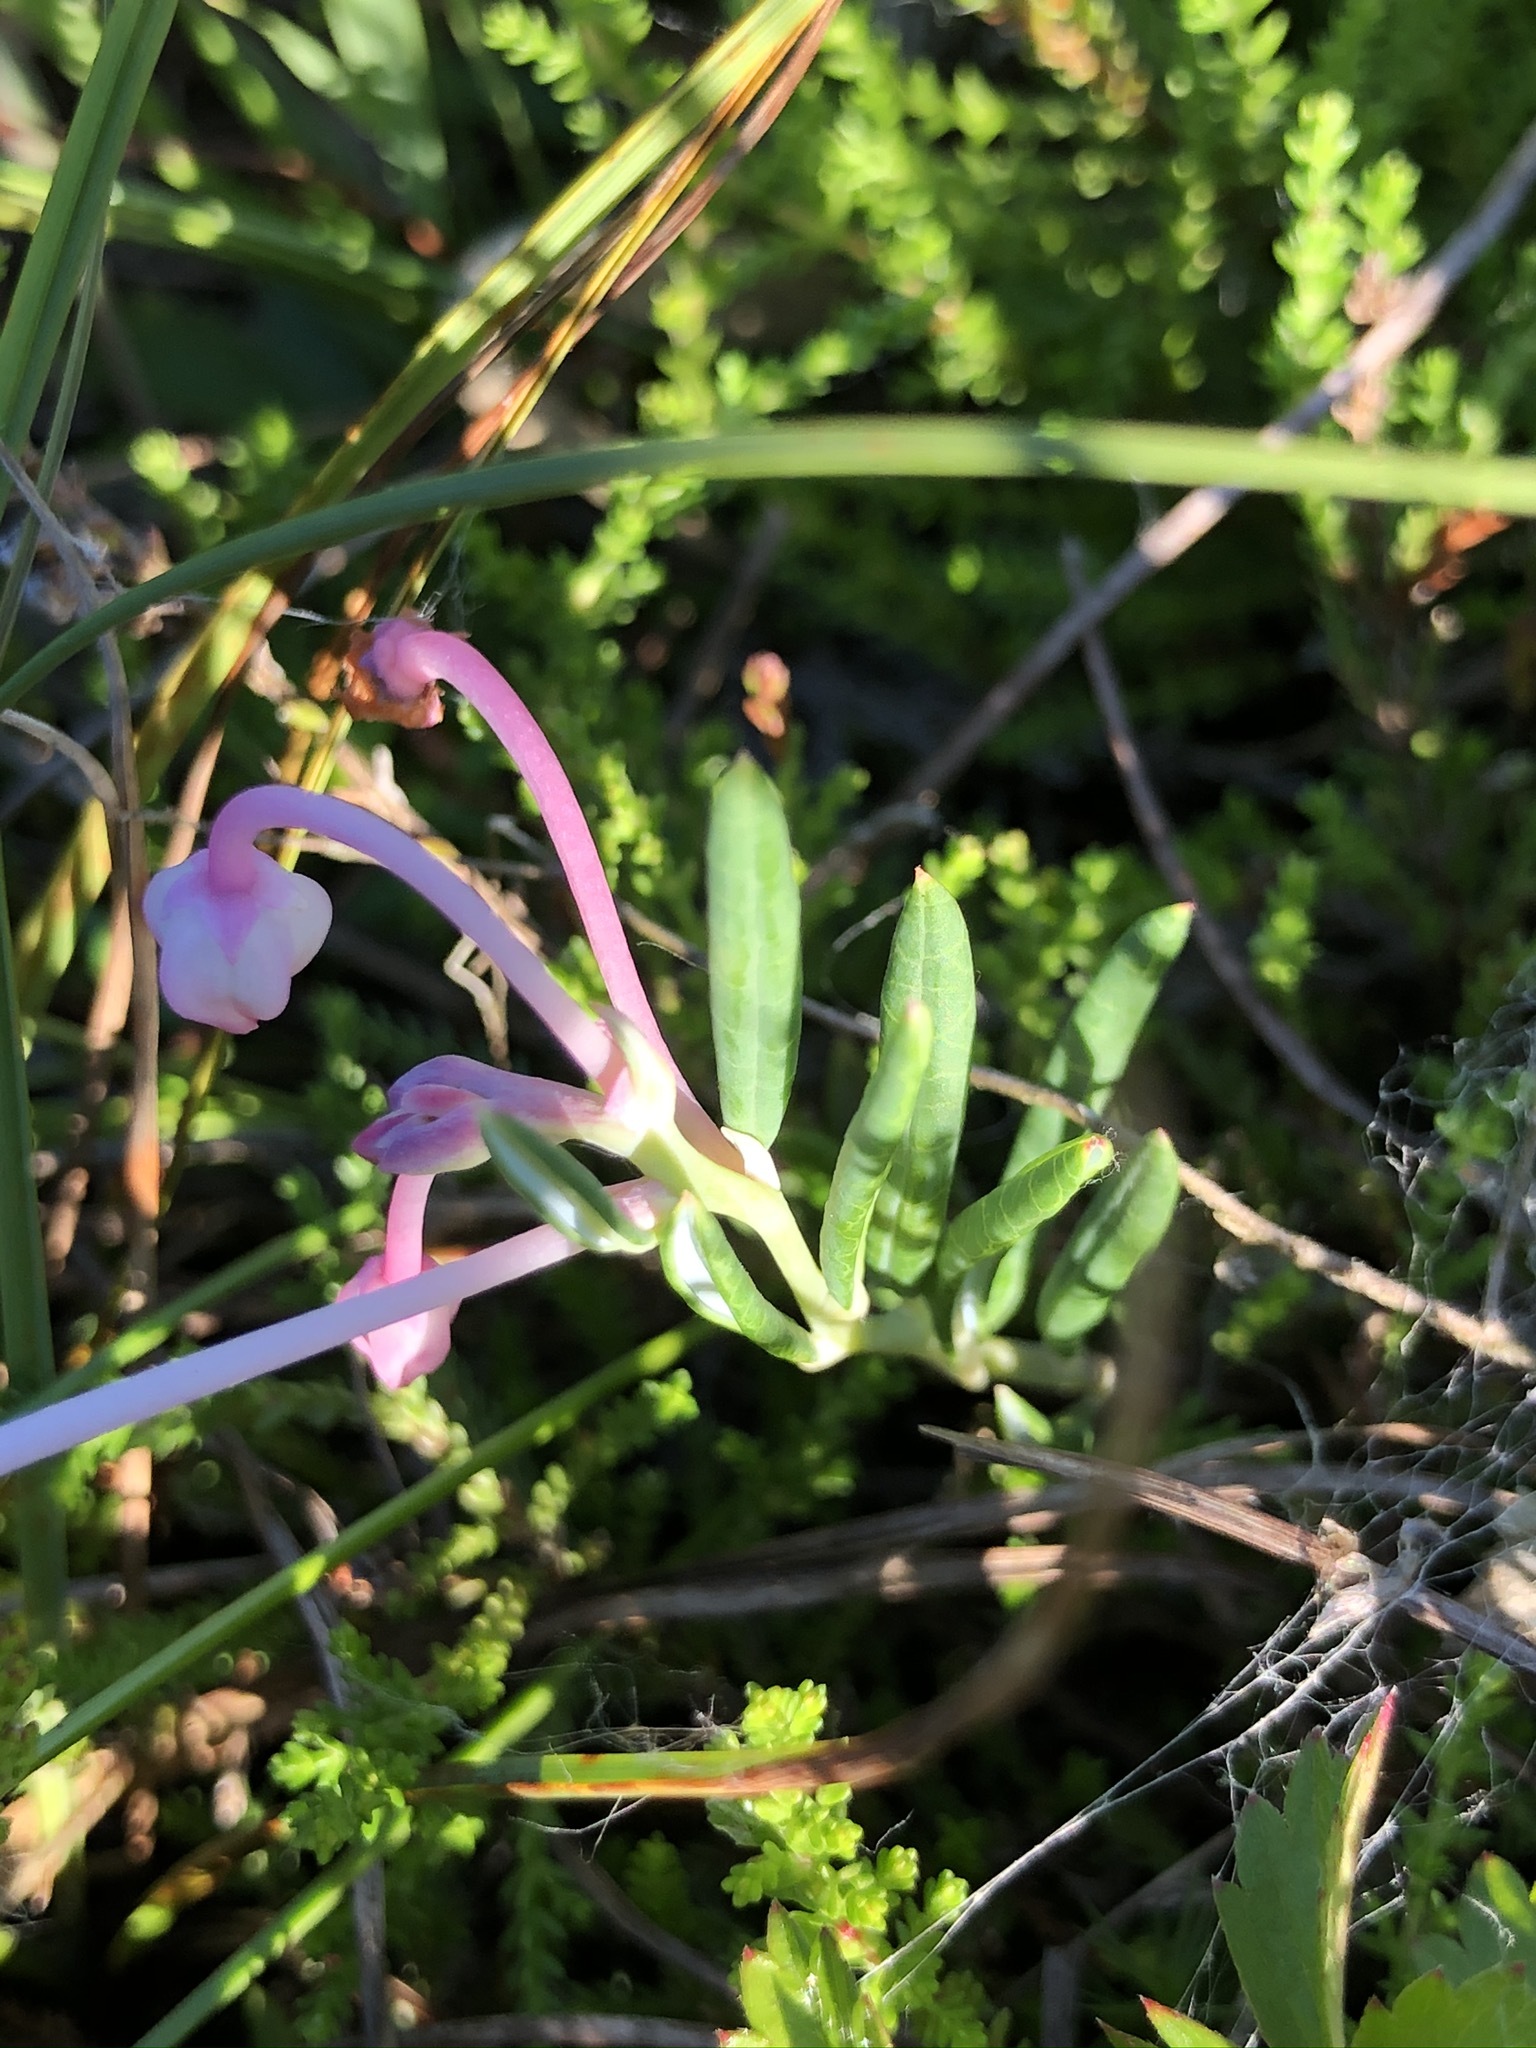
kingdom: Plantae
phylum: Tracheophyta
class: Magnoliopsida
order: Ericales
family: Ericaceae
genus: Andromeda
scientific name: Andromeda polifolia
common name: Bog-rosemary
